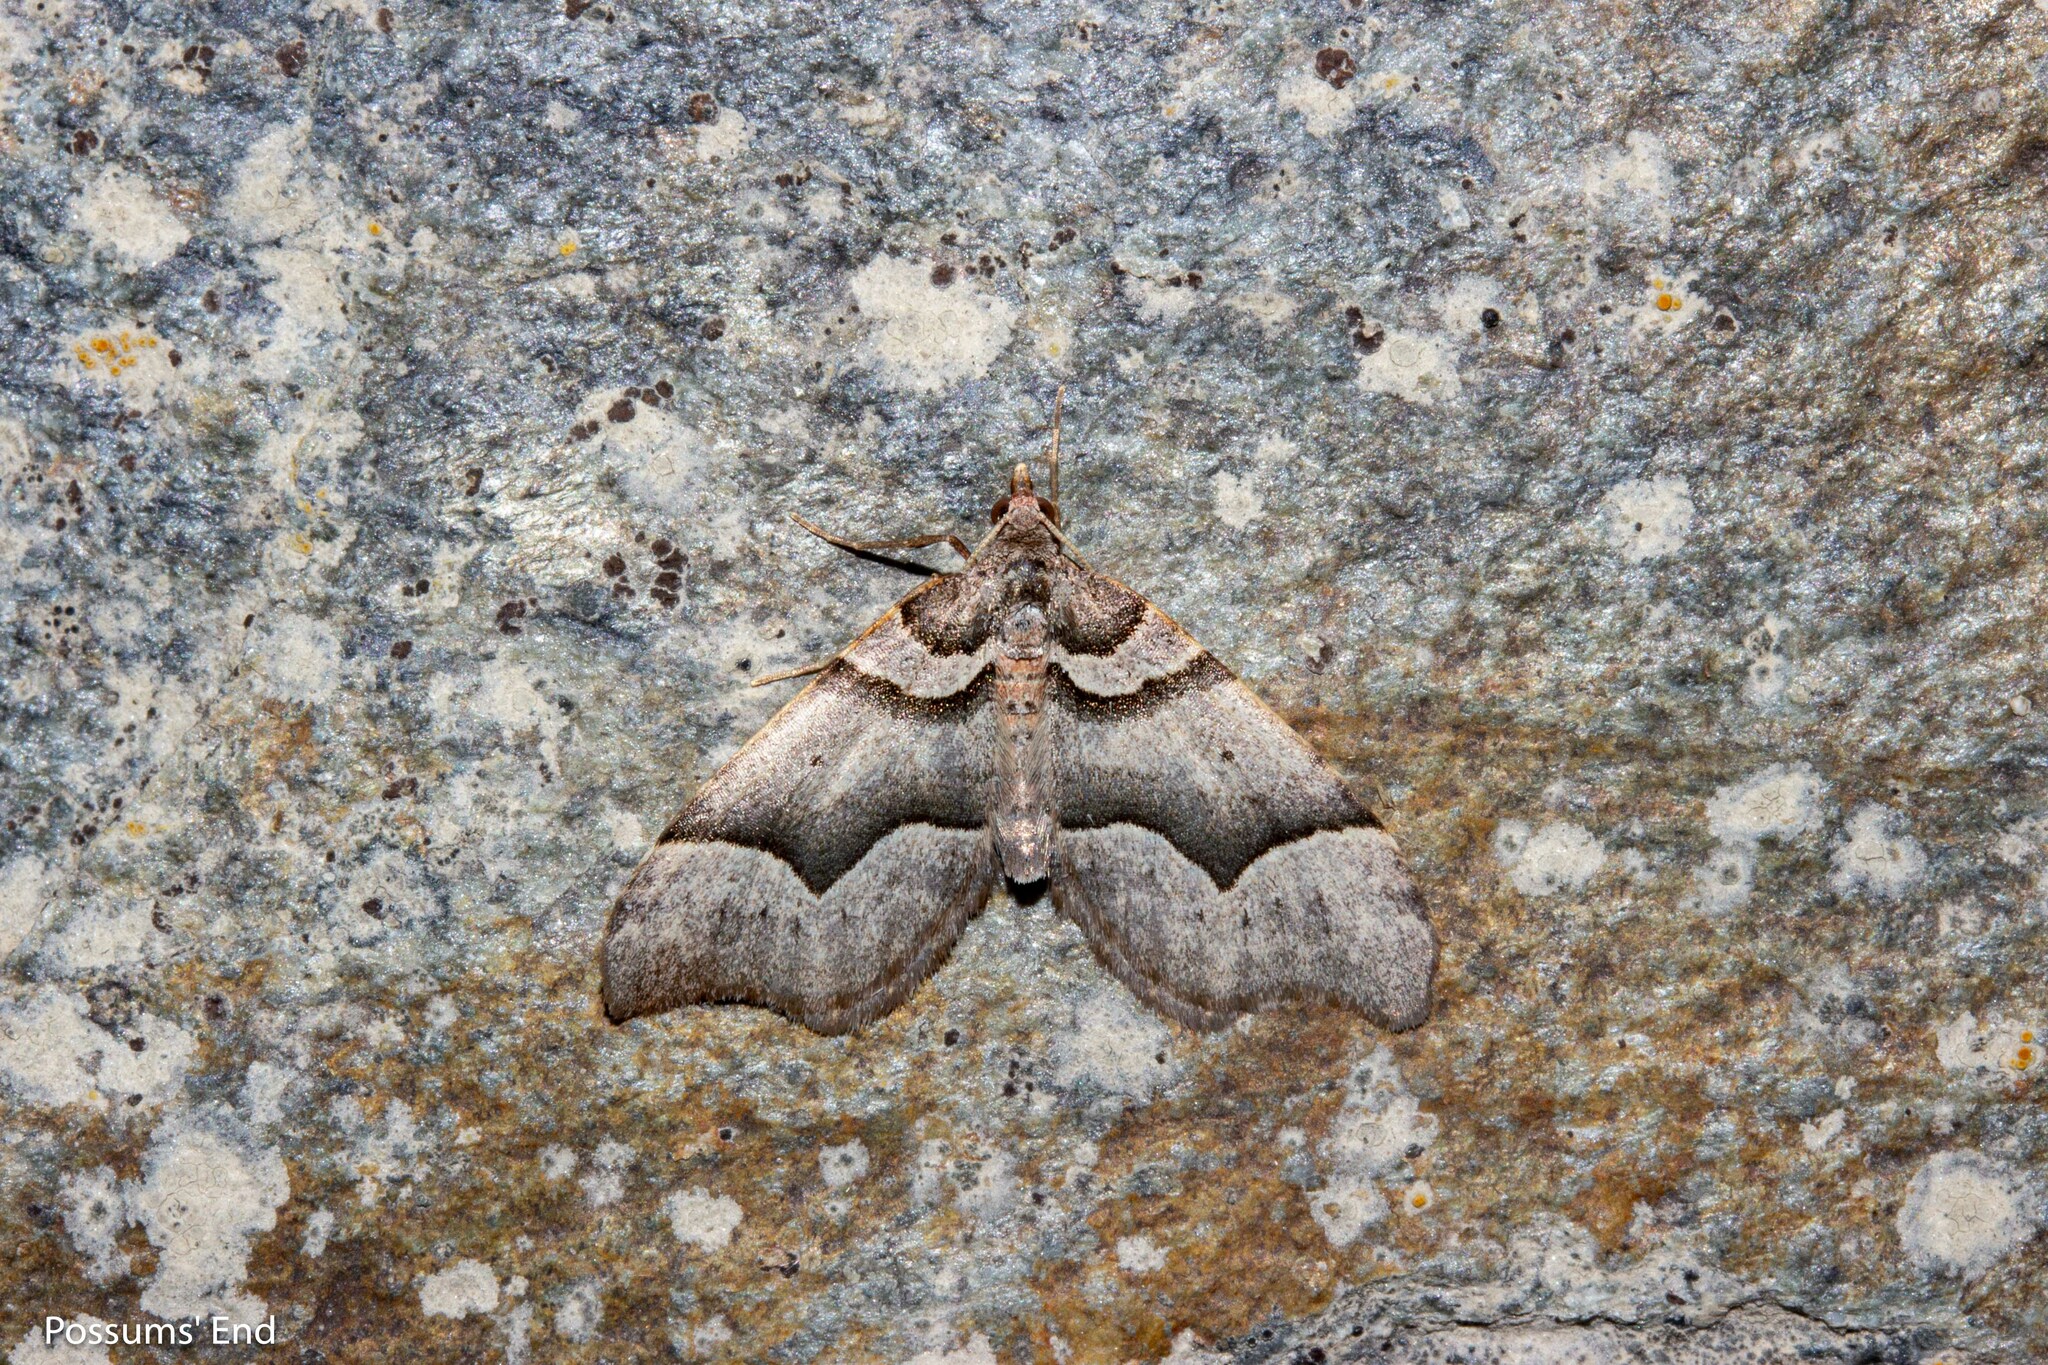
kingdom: Animalia
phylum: Arthropoda
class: Insecta
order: Lepidoptera
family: Geometridae
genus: Helastia
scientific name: Helastia triphragma
